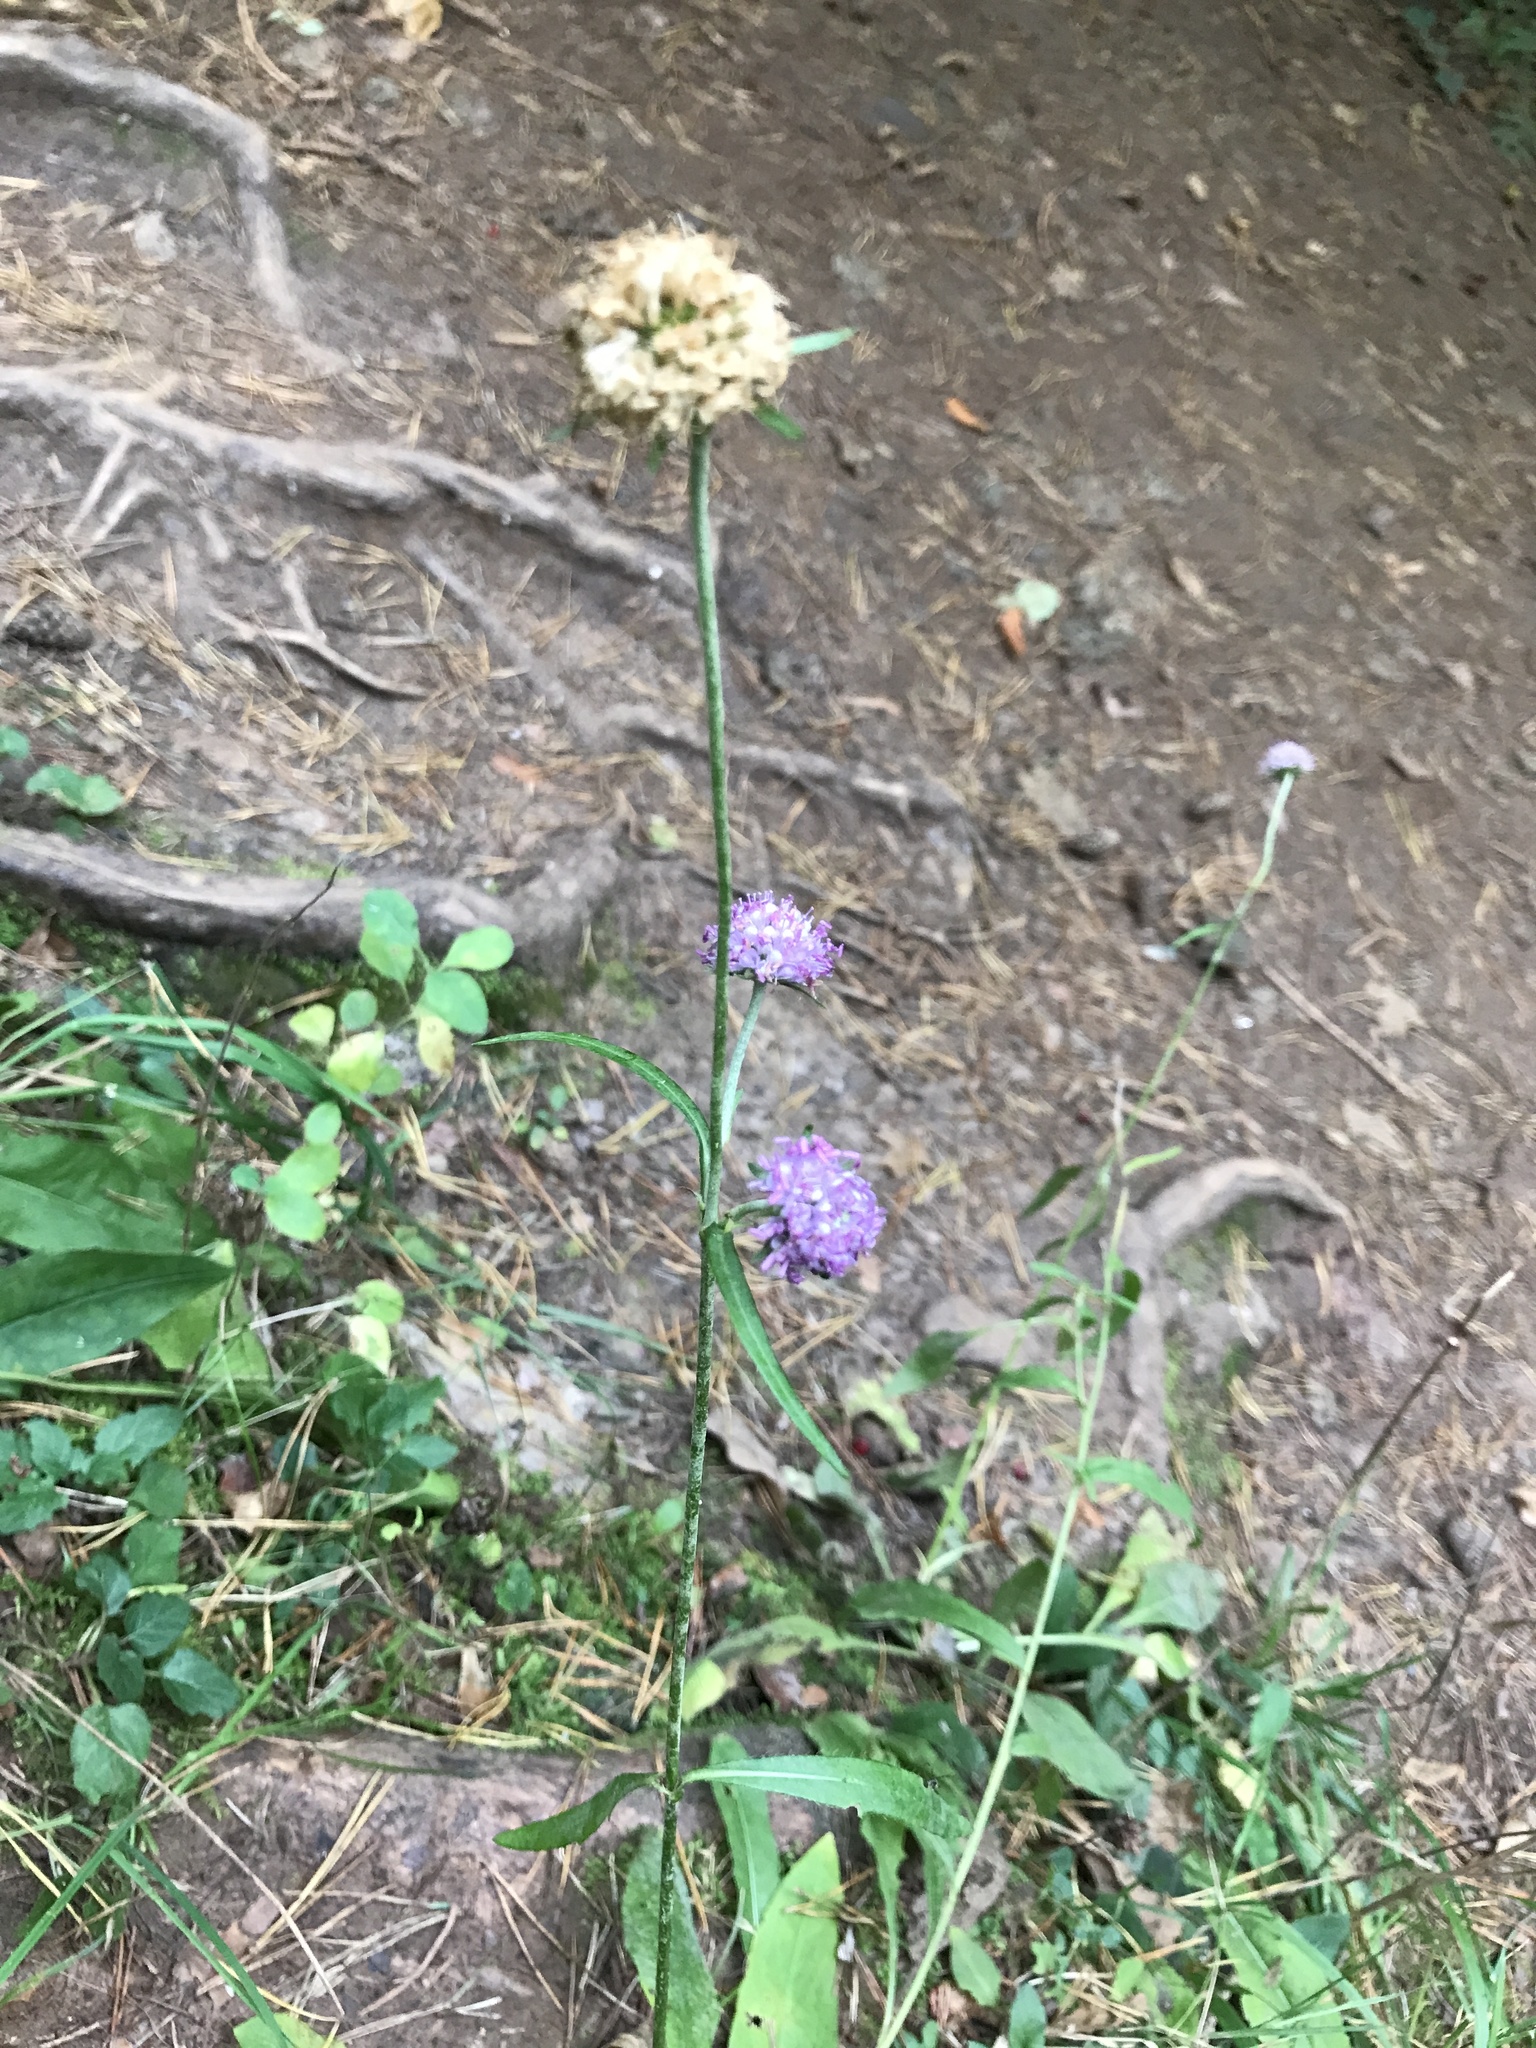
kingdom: Plantae
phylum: Tracheophyta
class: Magnoliopsida
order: Dipsacales
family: Caprifoliaceae
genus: Succisa
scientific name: Succisa pratensis
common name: Devil's-bit
